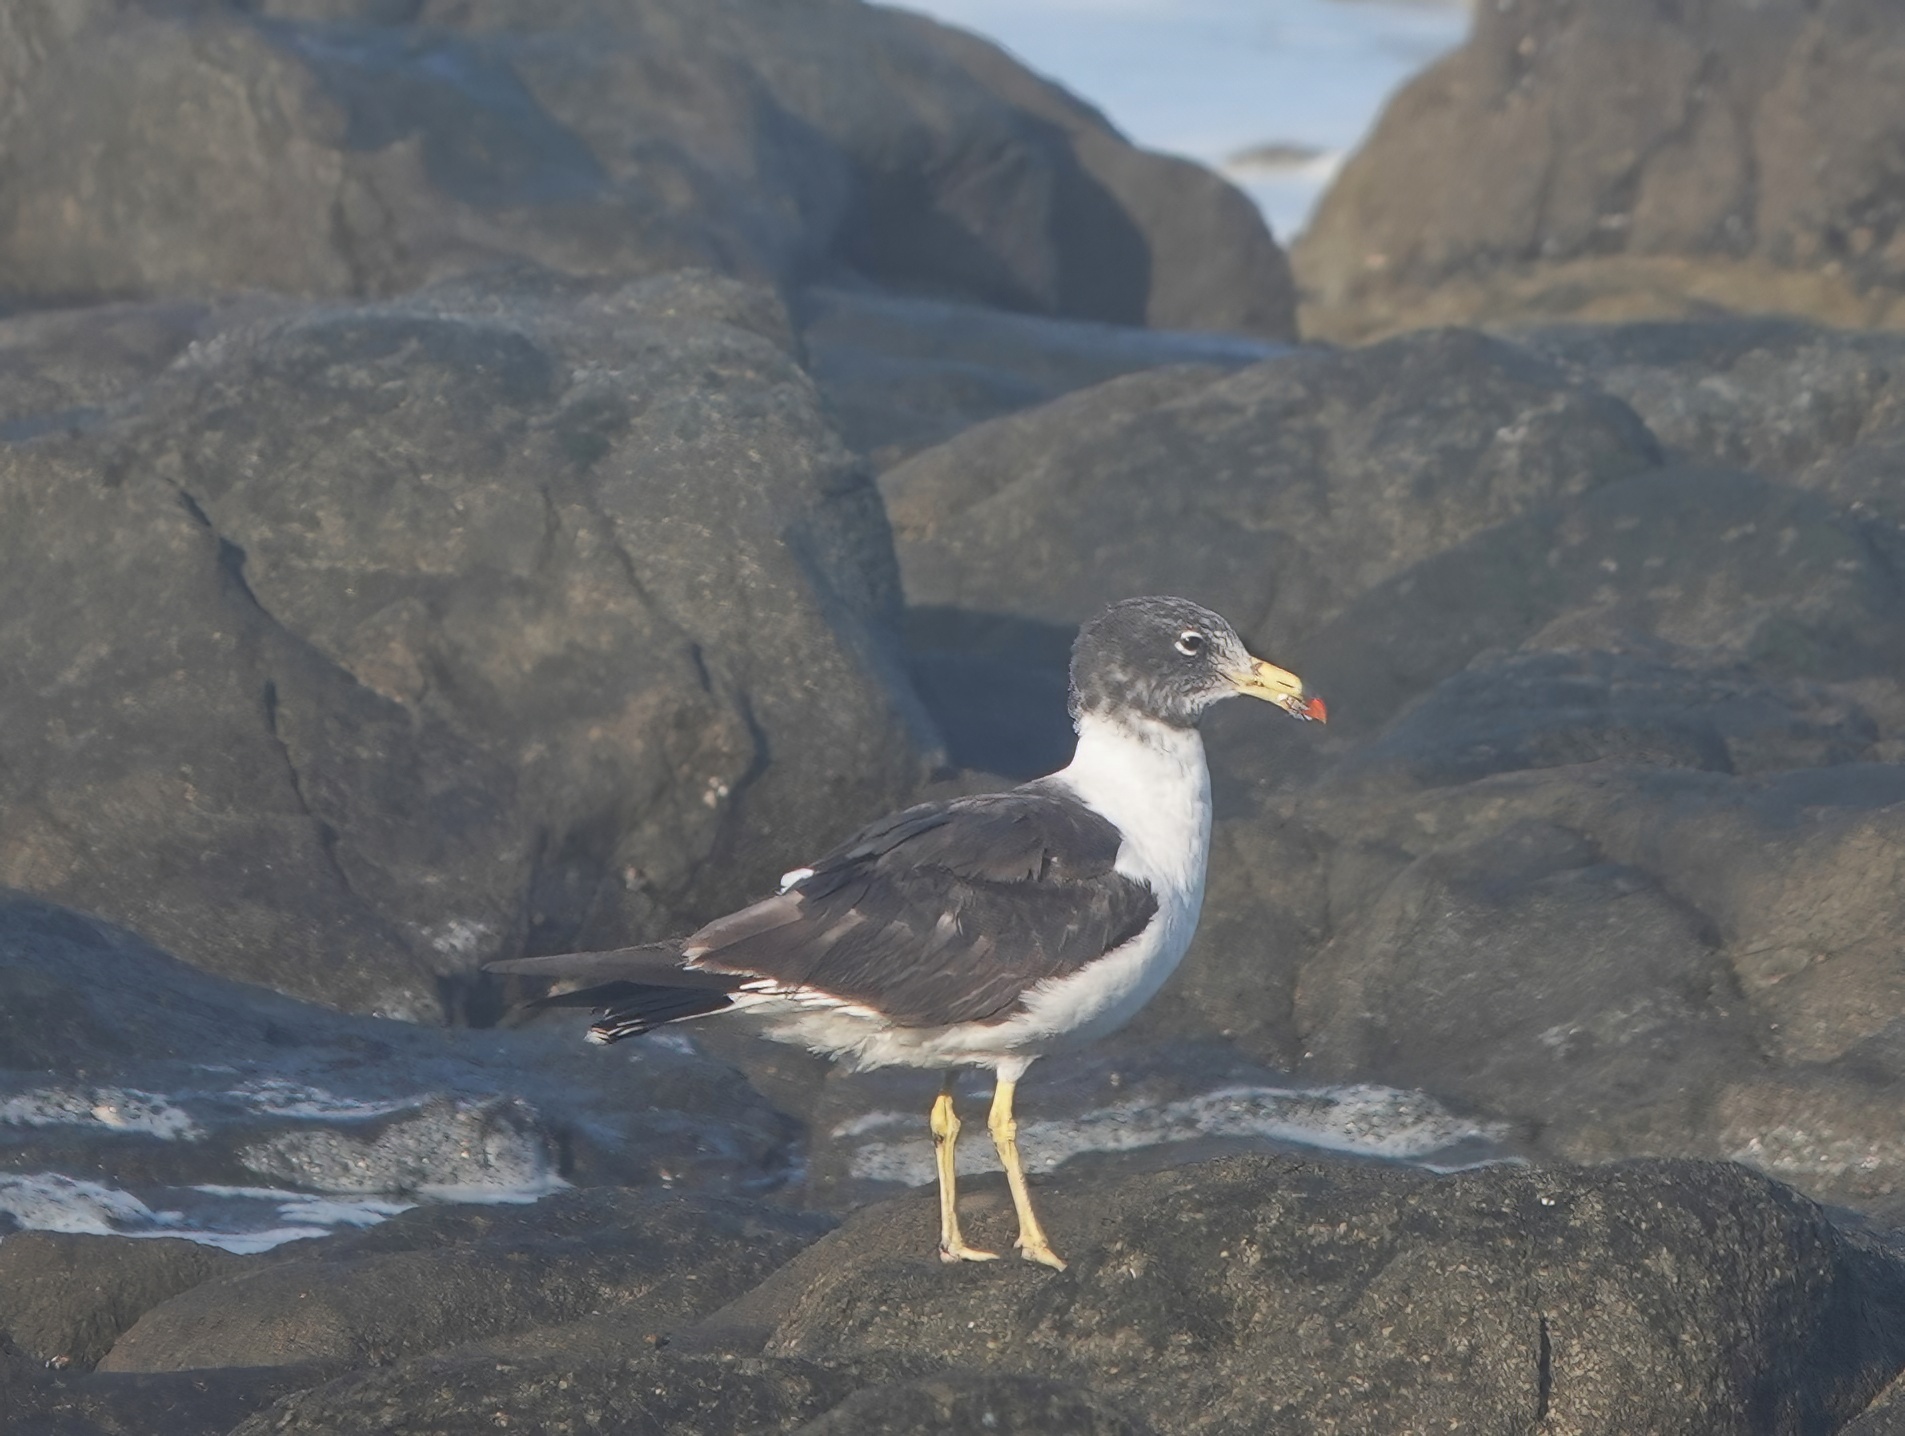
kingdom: Animalia
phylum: Chordata
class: Aves
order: Charadriiformes
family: Laridae
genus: Larus
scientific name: Larus belcheri
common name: Belcher's gull
